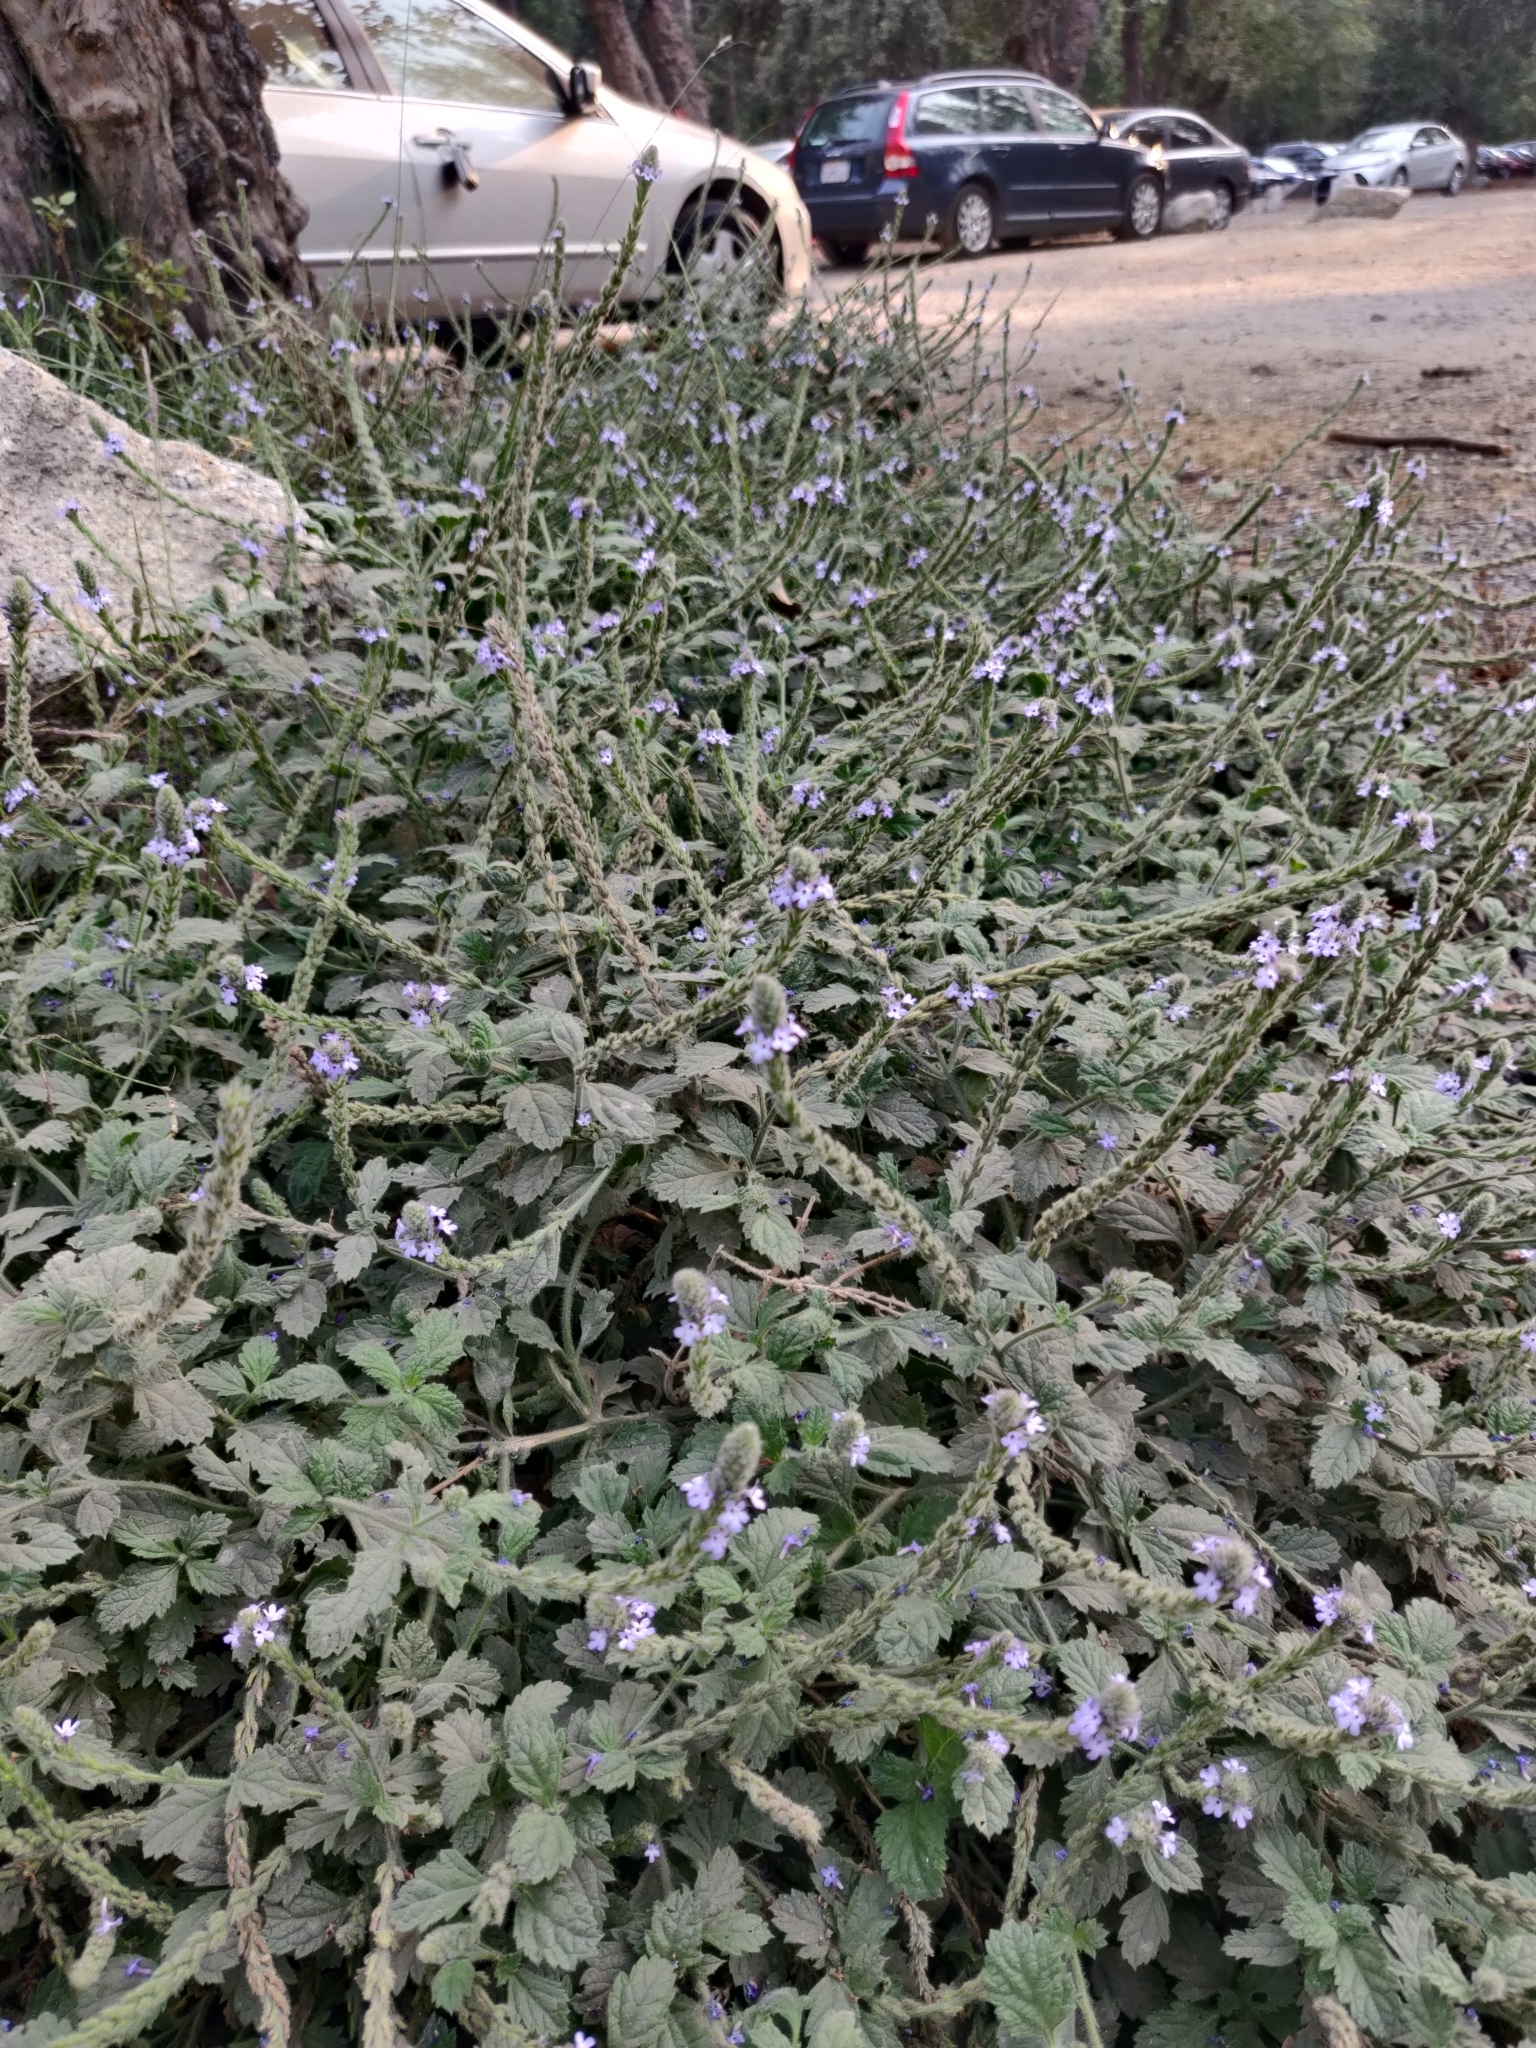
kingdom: Plantae
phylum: Tracheophyta
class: Magnoliopsida
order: Lamiales
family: Verbenaceae
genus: Verbena
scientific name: Verbena lasiostachys
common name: Vervain
